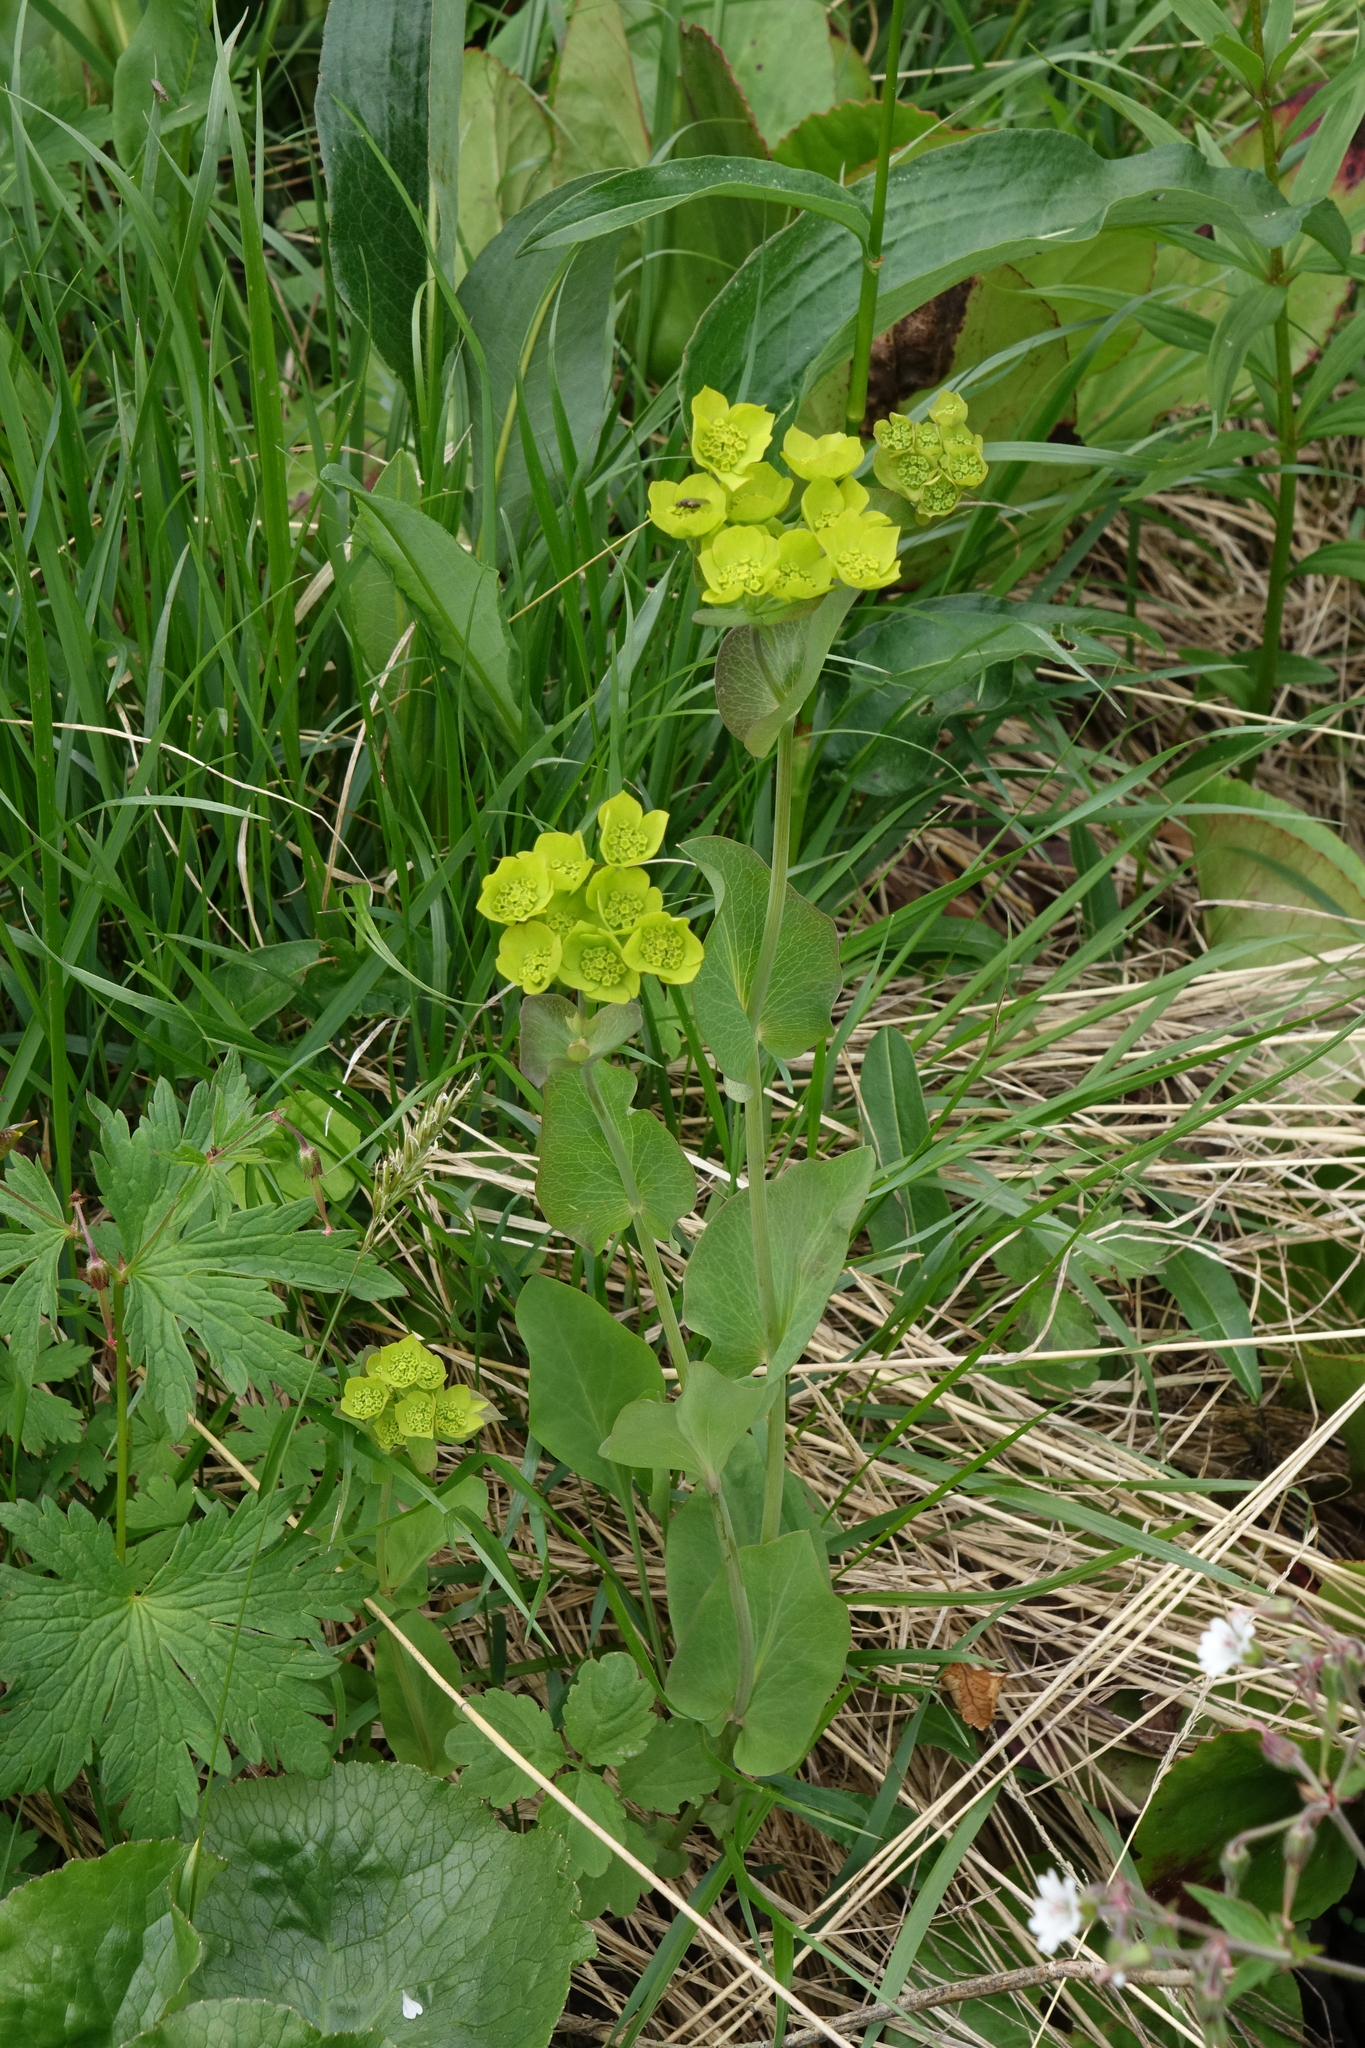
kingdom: Plantae
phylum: Tracheophyta
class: Magnoliopsida
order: Apiales
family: Apiaceae
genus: Bupleurum
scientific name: Bupleurum aureum
